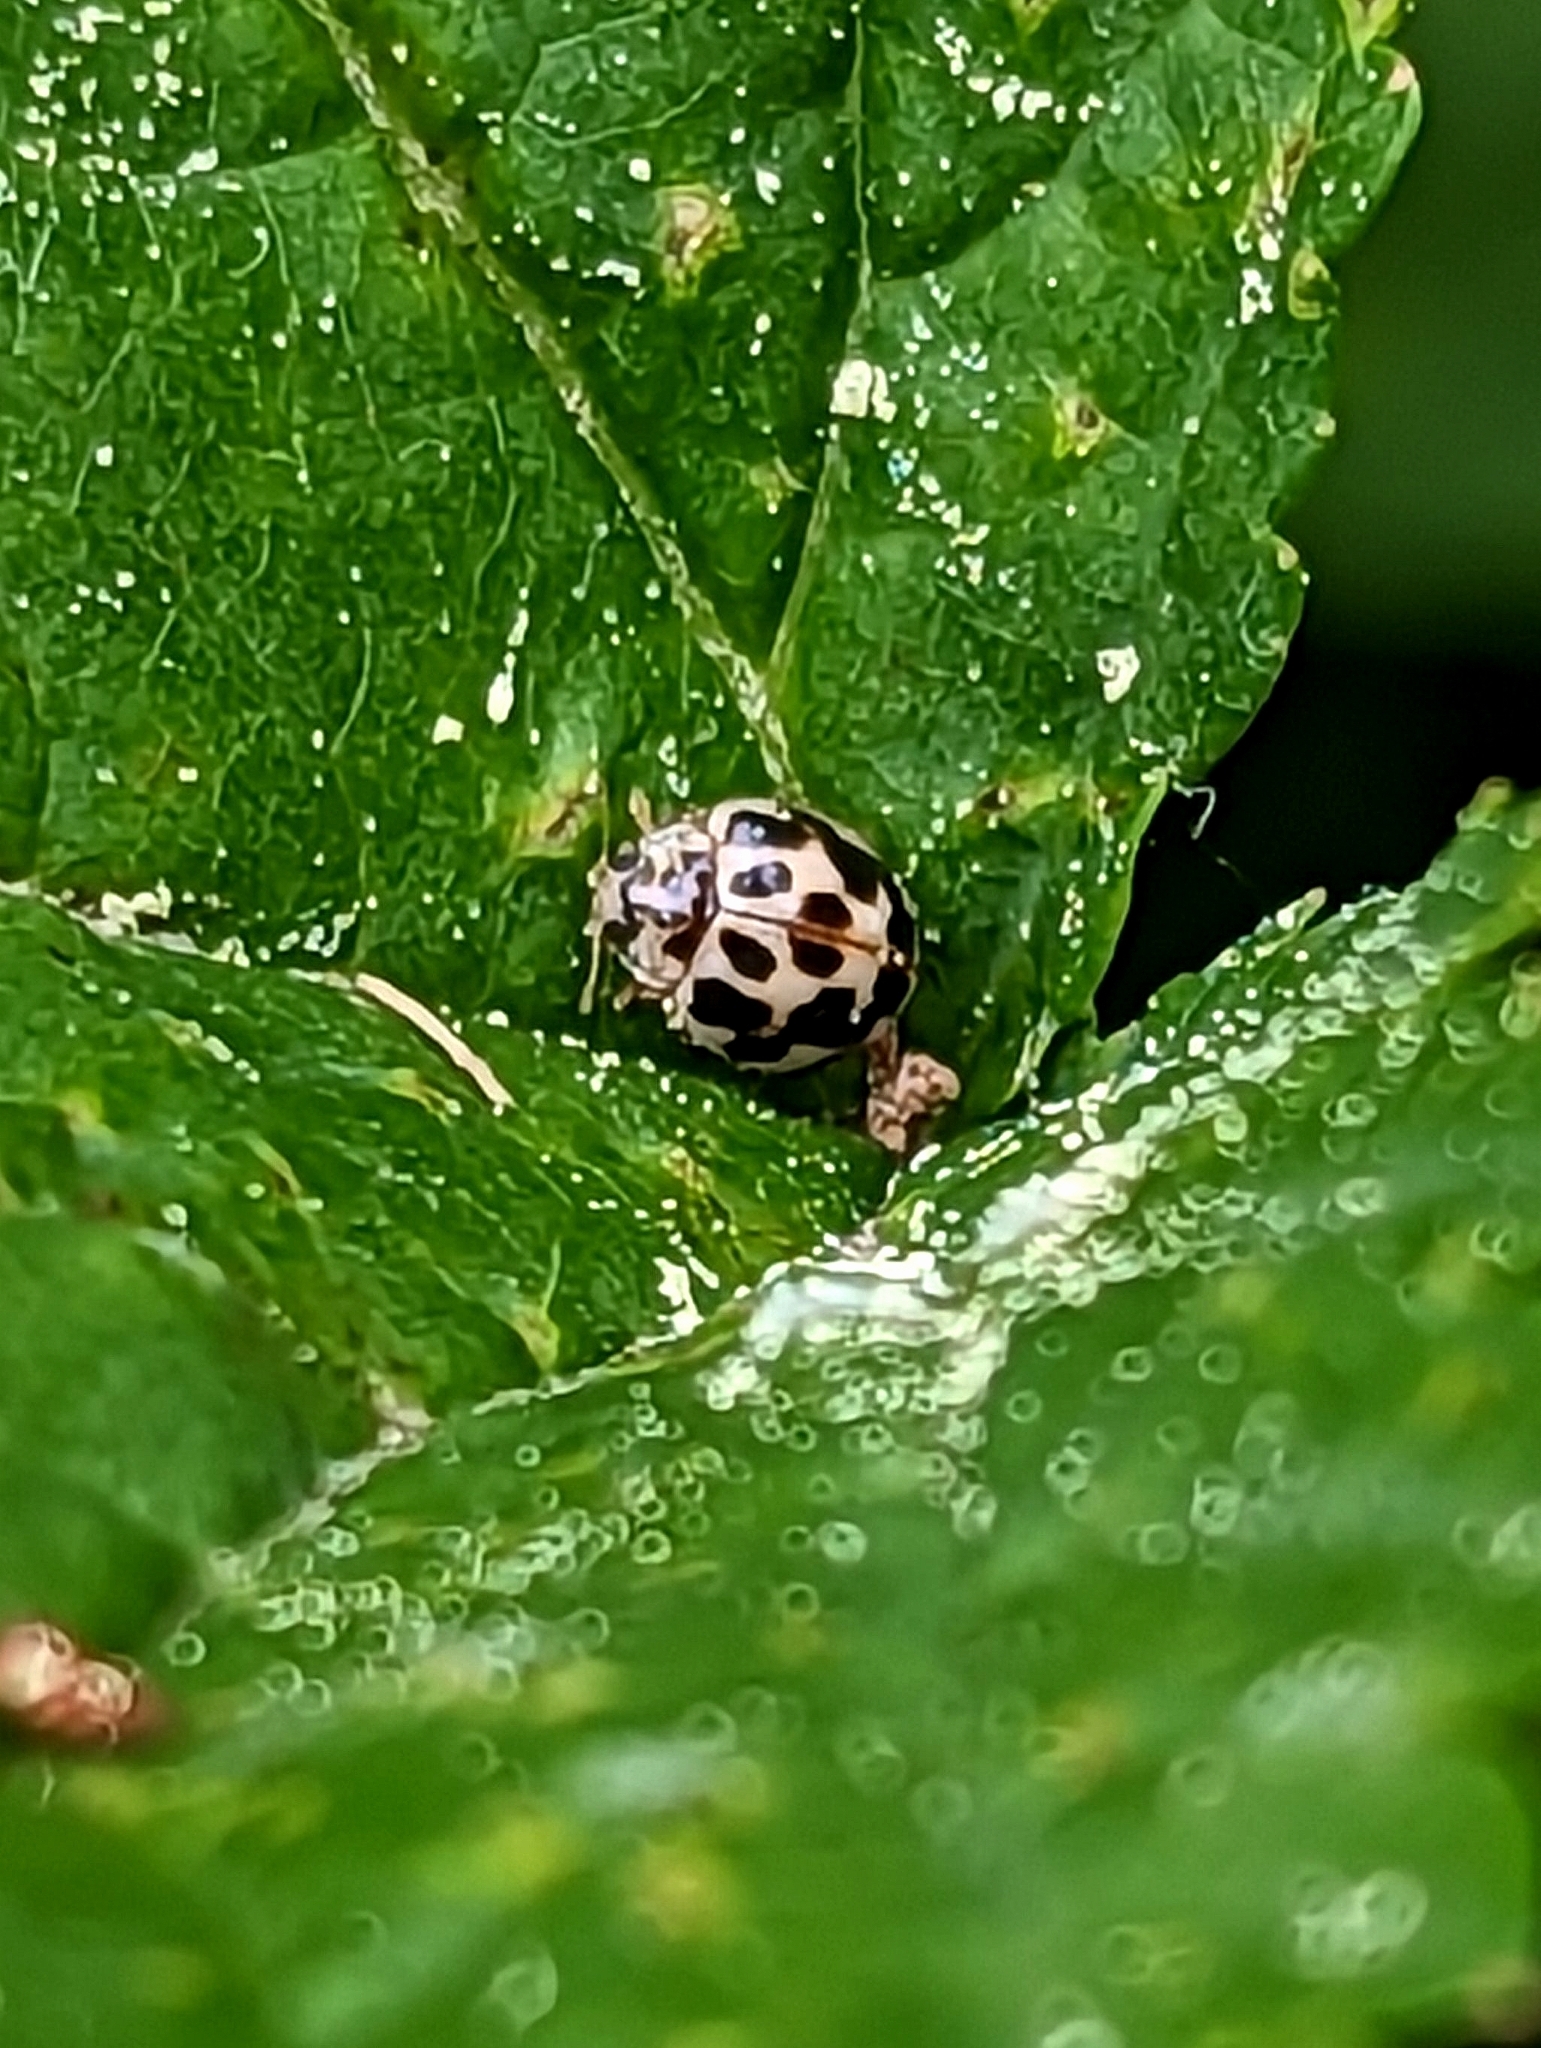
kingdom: Animalia
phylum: Arthropoda
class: Insecta
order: Coleoptera
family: Coccinellidae
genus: Psyllobora
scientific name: Psyllobora vigintimaculata
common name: Ladybird beetle
